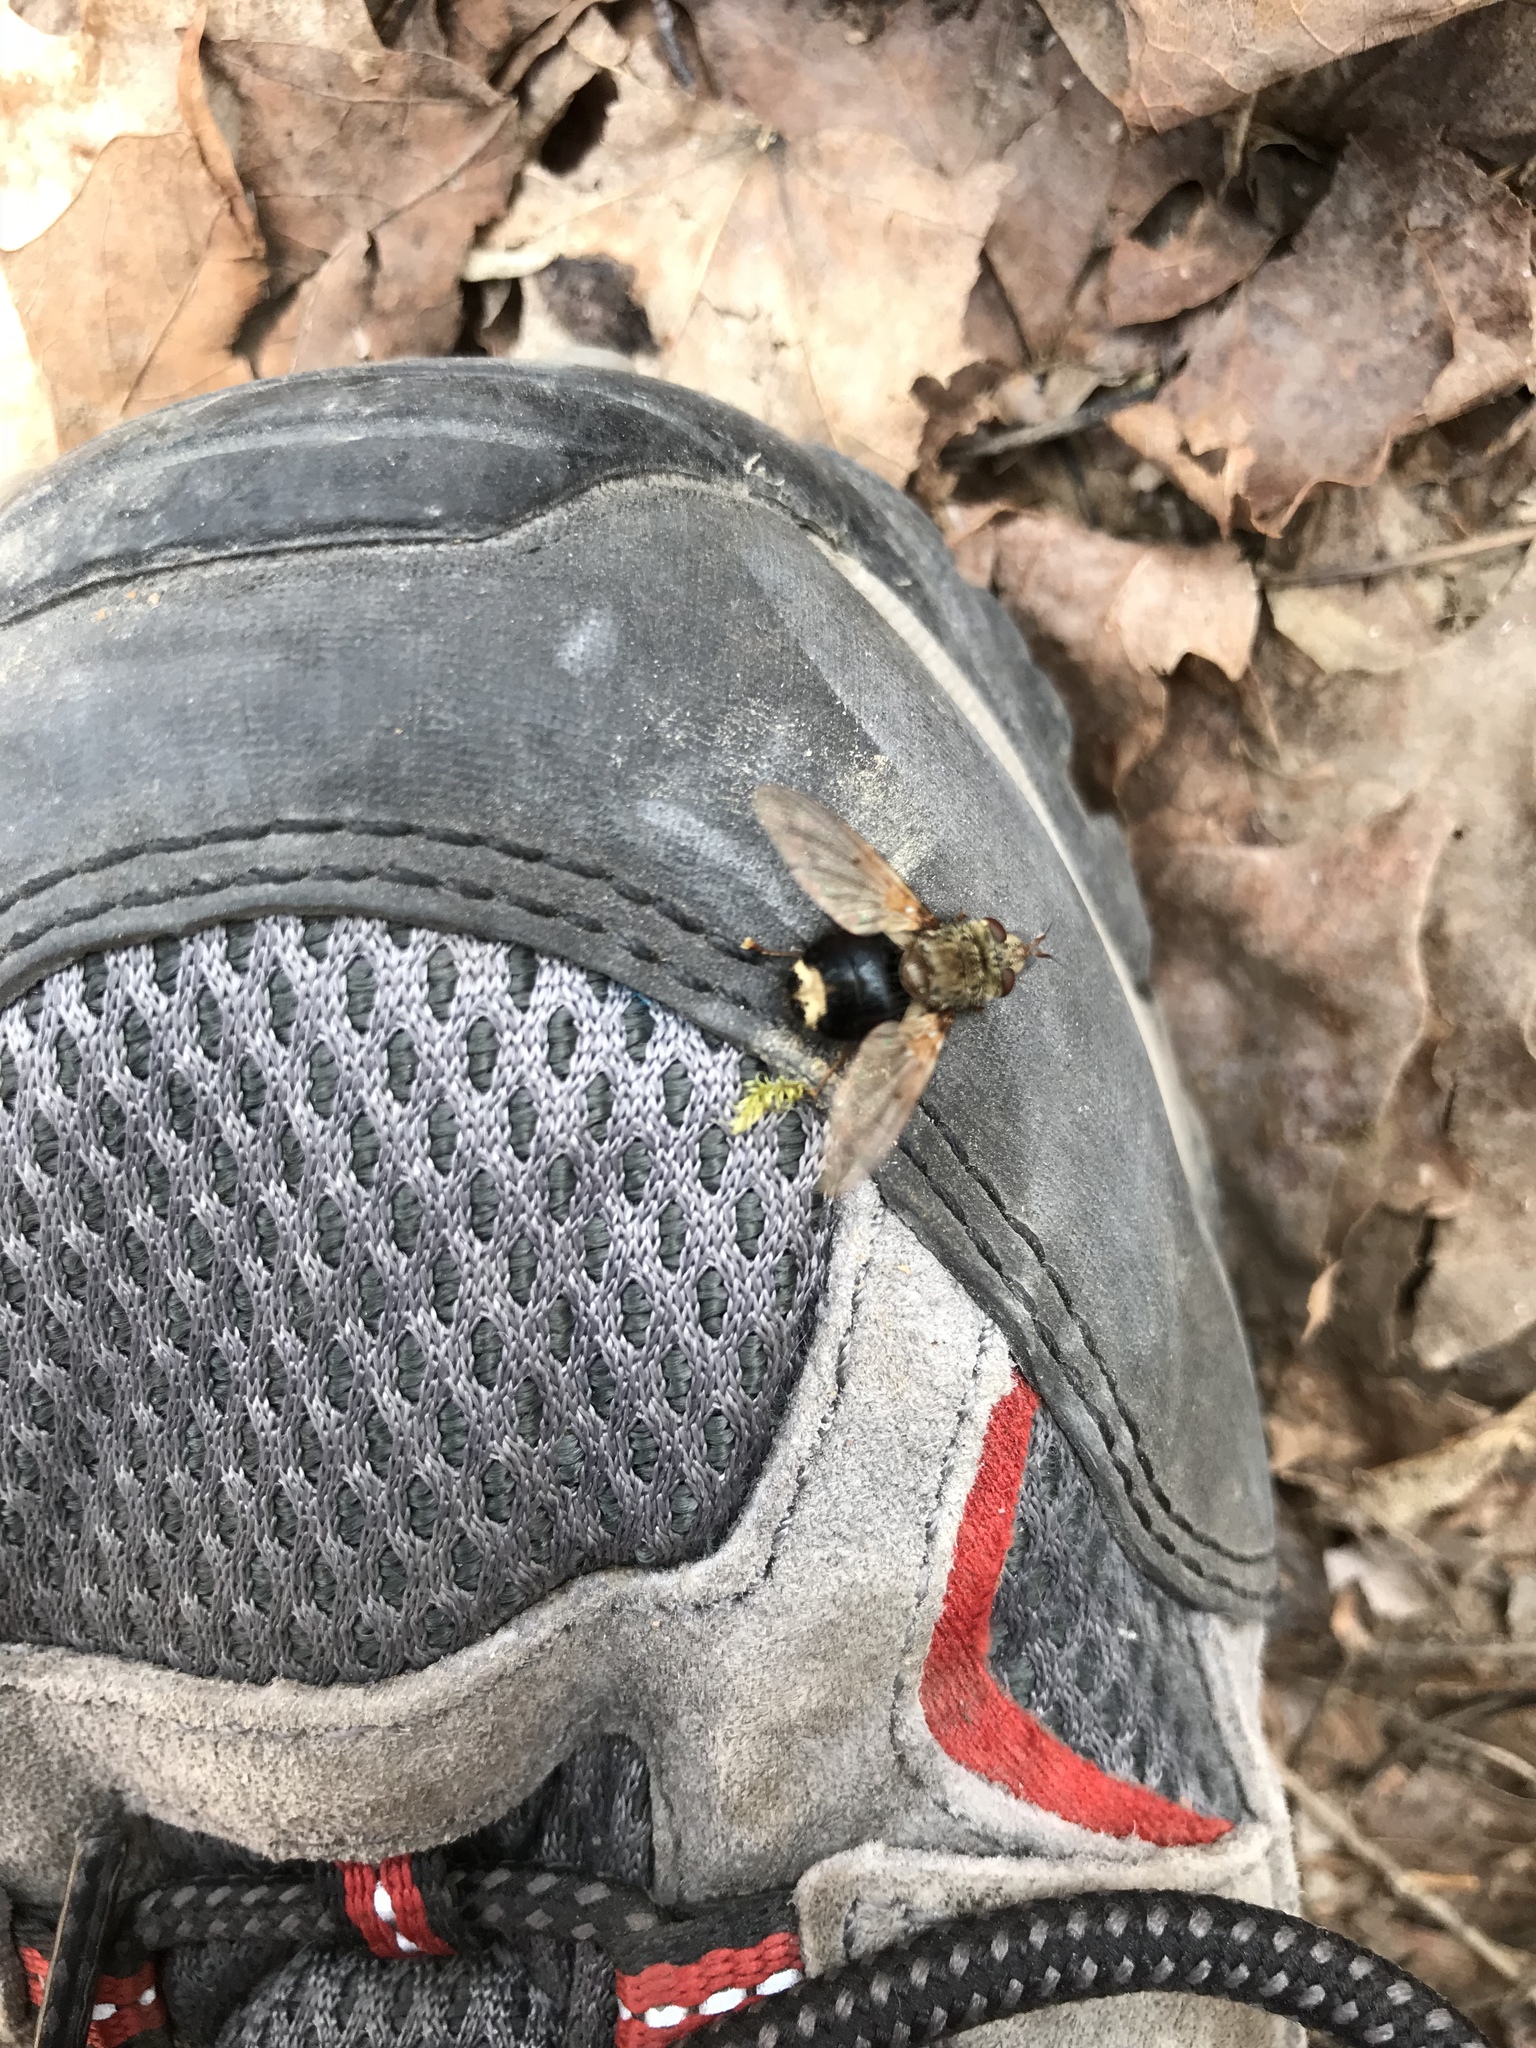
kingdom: Animalia
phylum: Arthropoda
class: Insecta
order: Diptera
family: Tachinidae
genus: Epalpus
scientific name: Epalpus signifer
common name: Early tachinid fly
